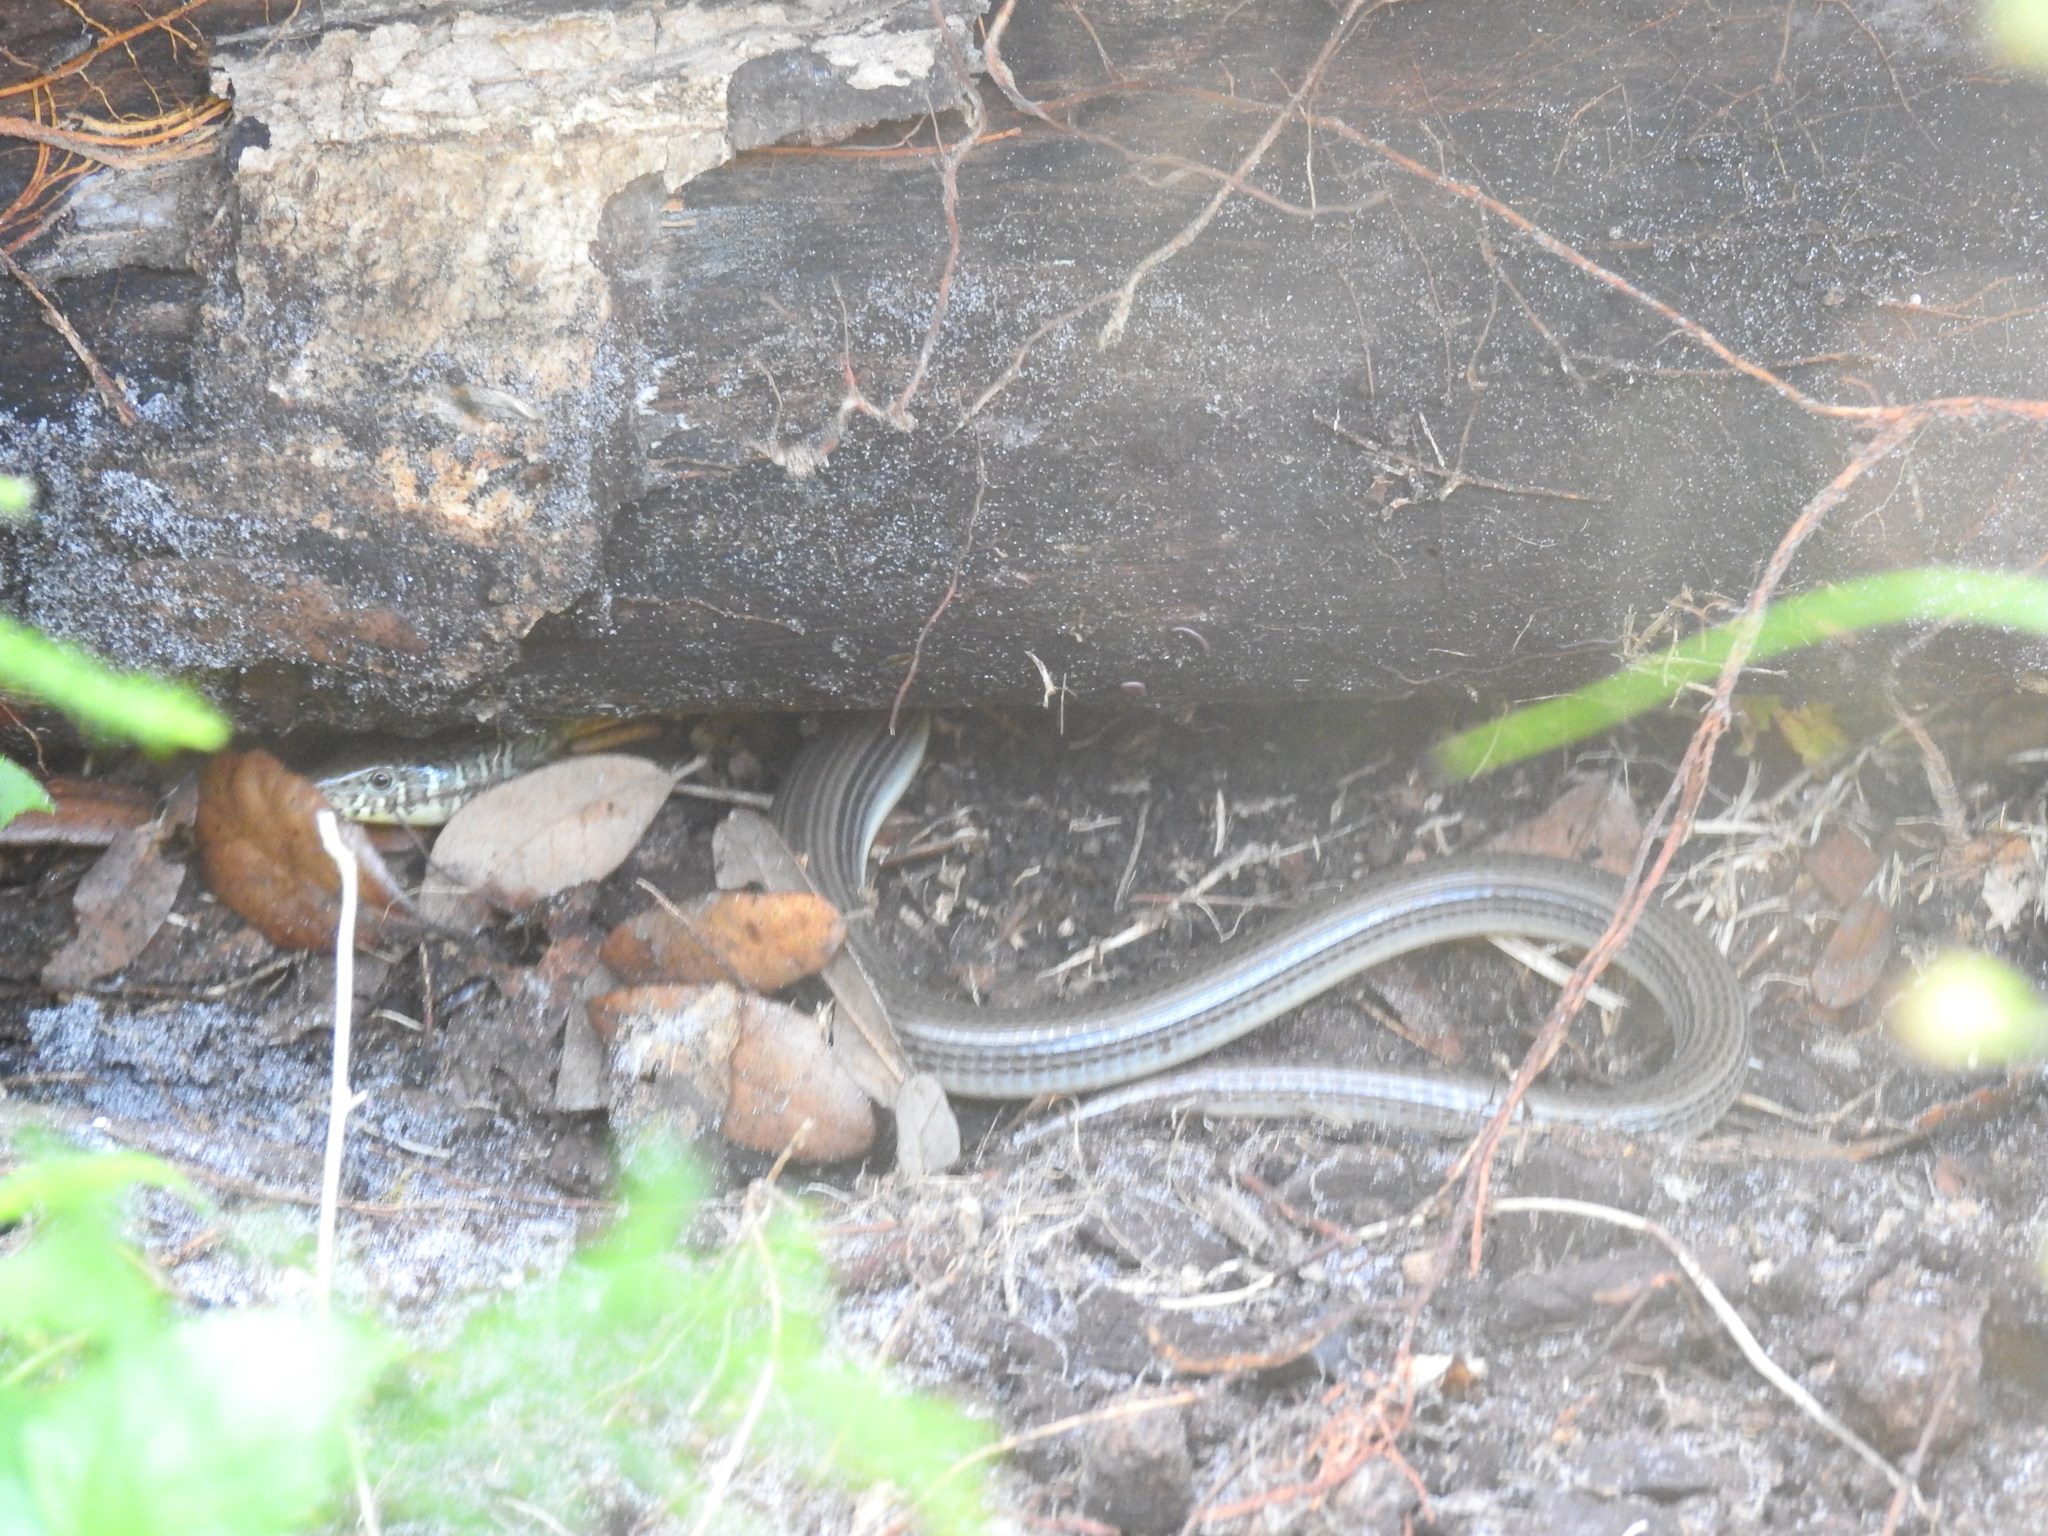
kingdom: Animalia
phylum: Chordata
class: Squamata
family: Anguidae
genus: Ophisaurus
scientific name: Ophisaurus ventralis
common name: Eastern glass lizard
